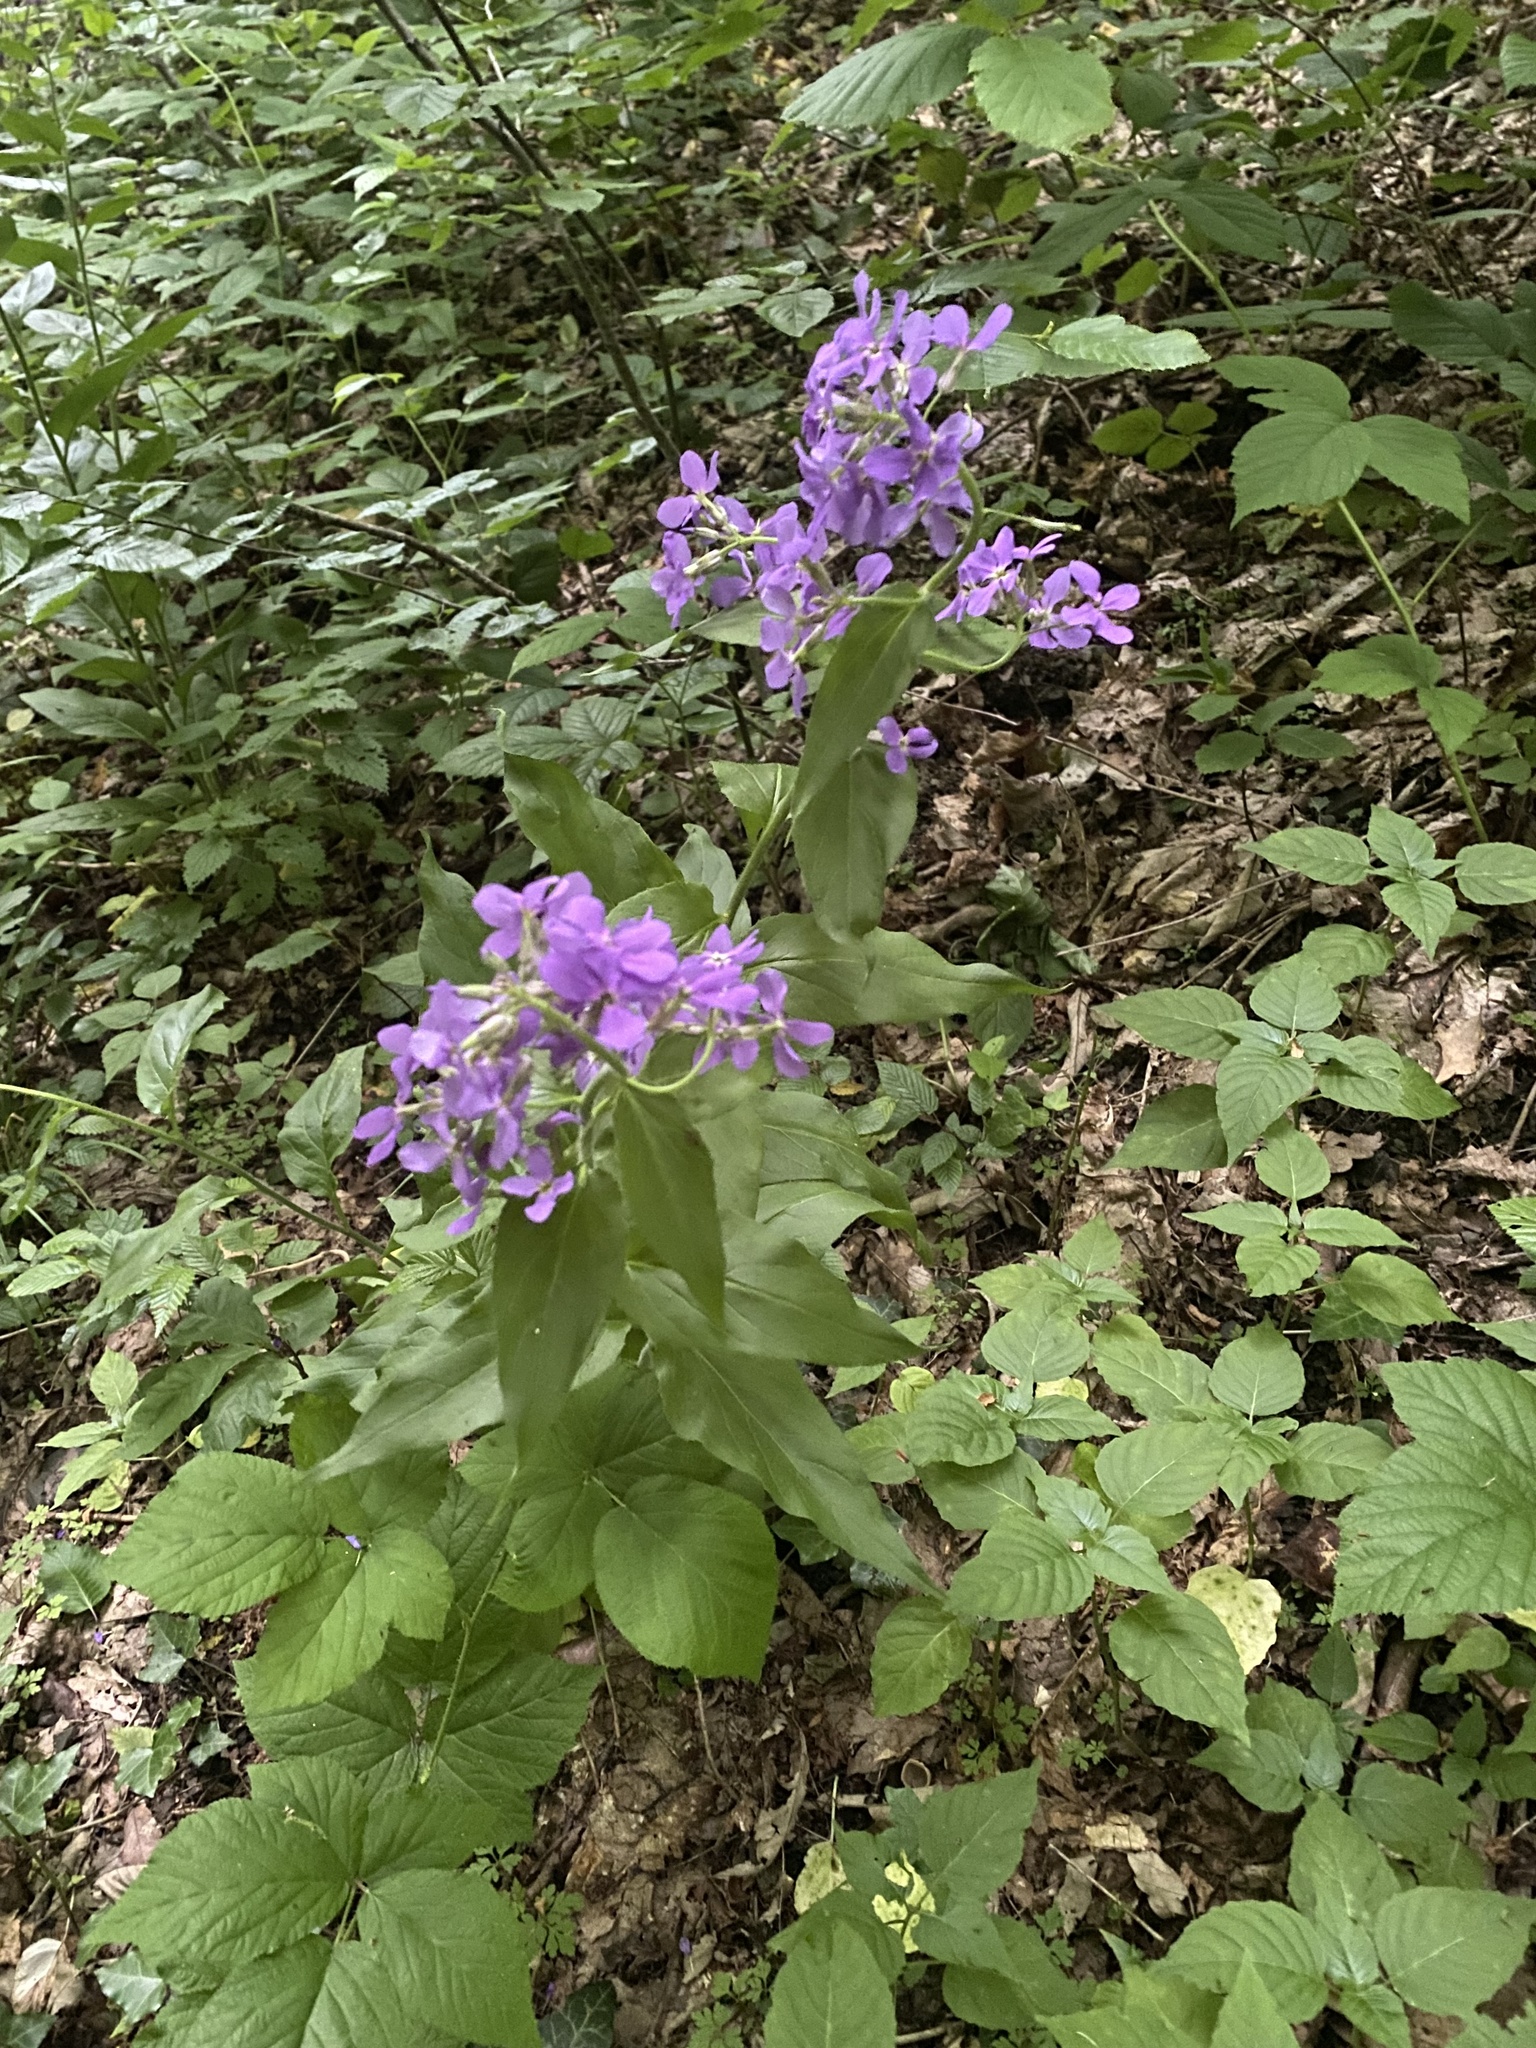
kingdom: Plantae
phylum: Tracheophyta
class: Magnoliopsida
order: Brassicales
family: Brassicaceae
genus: Hesperis
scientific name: Hesperis matronalis
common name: Dame's-violet
